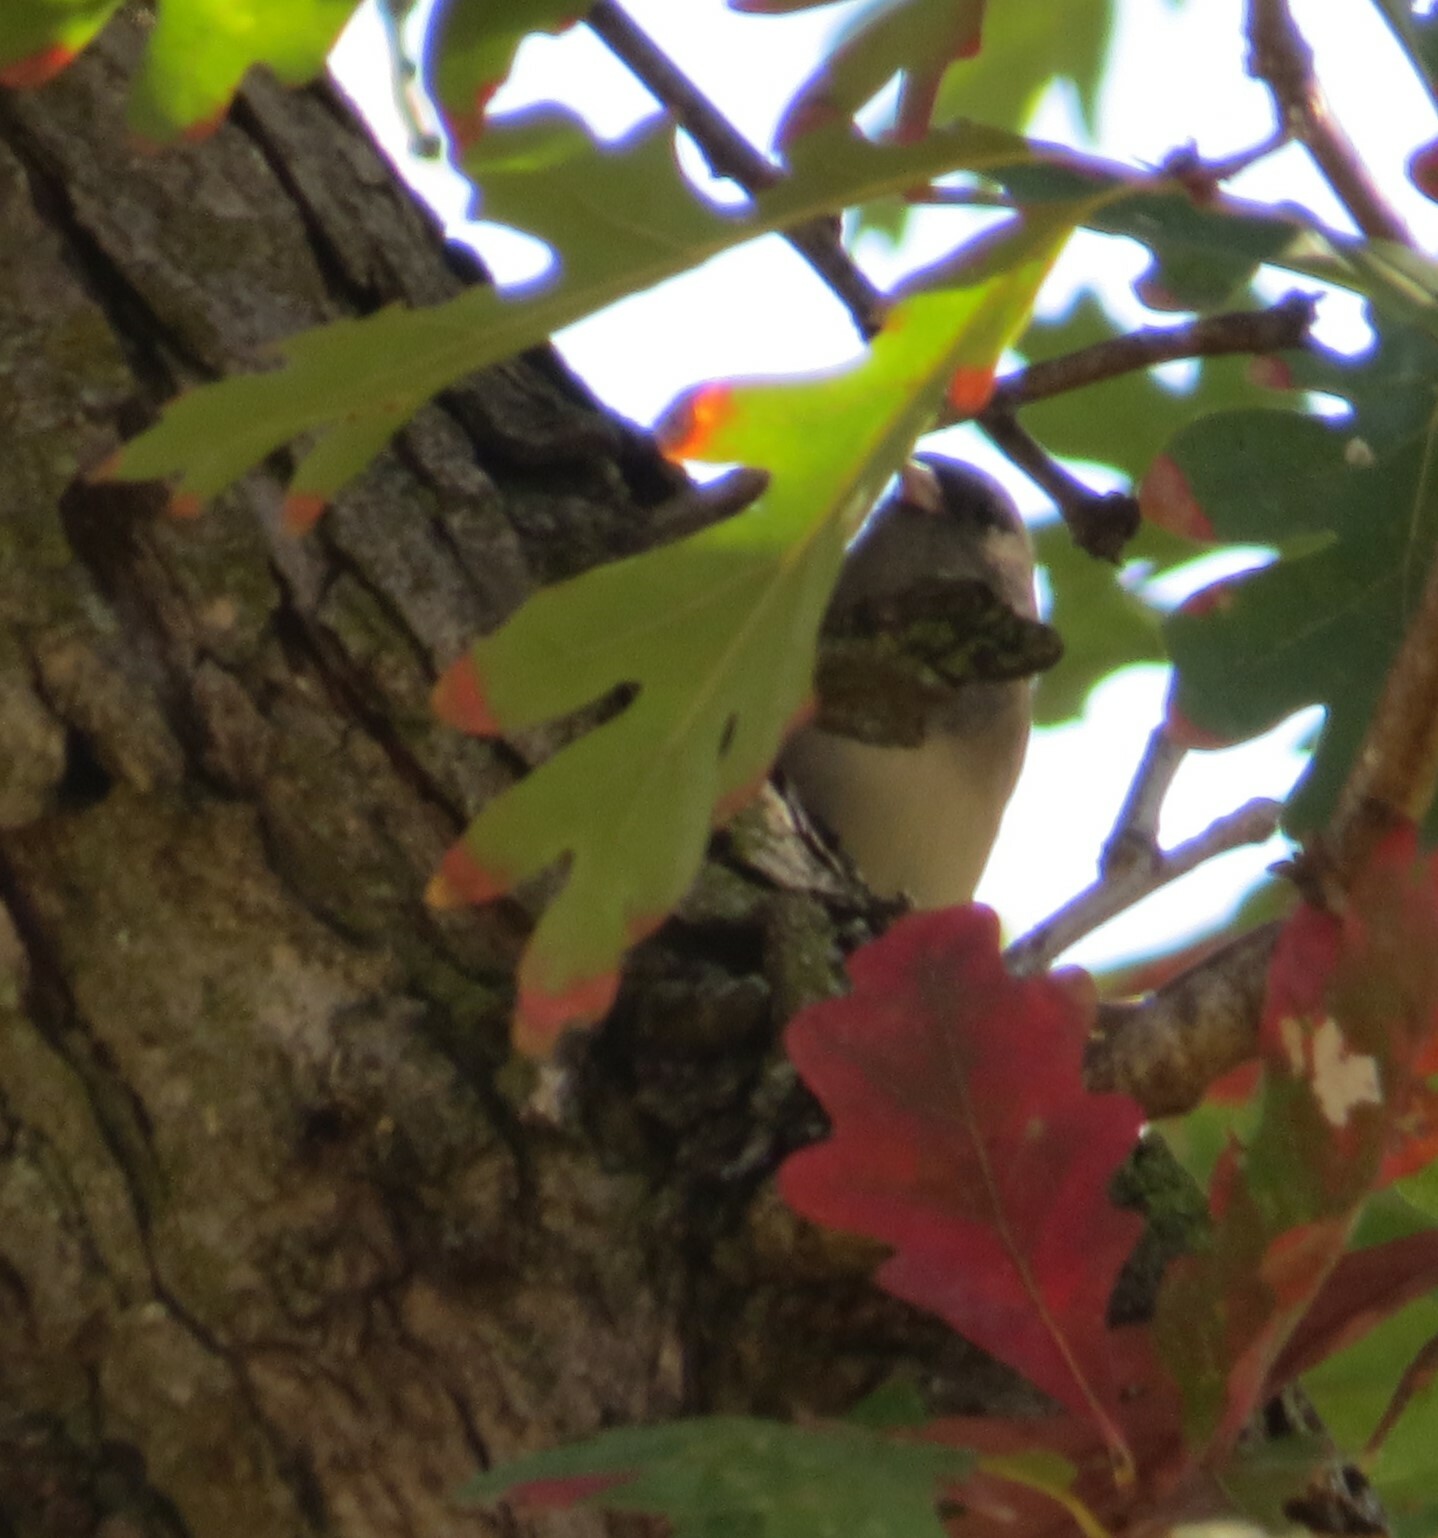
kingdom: Animalia
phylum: Chordata
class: Aves
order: Passeriformes
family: Passerellidae
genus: Junco
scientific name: Junco hyemalis
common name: Dark-eyed junco
